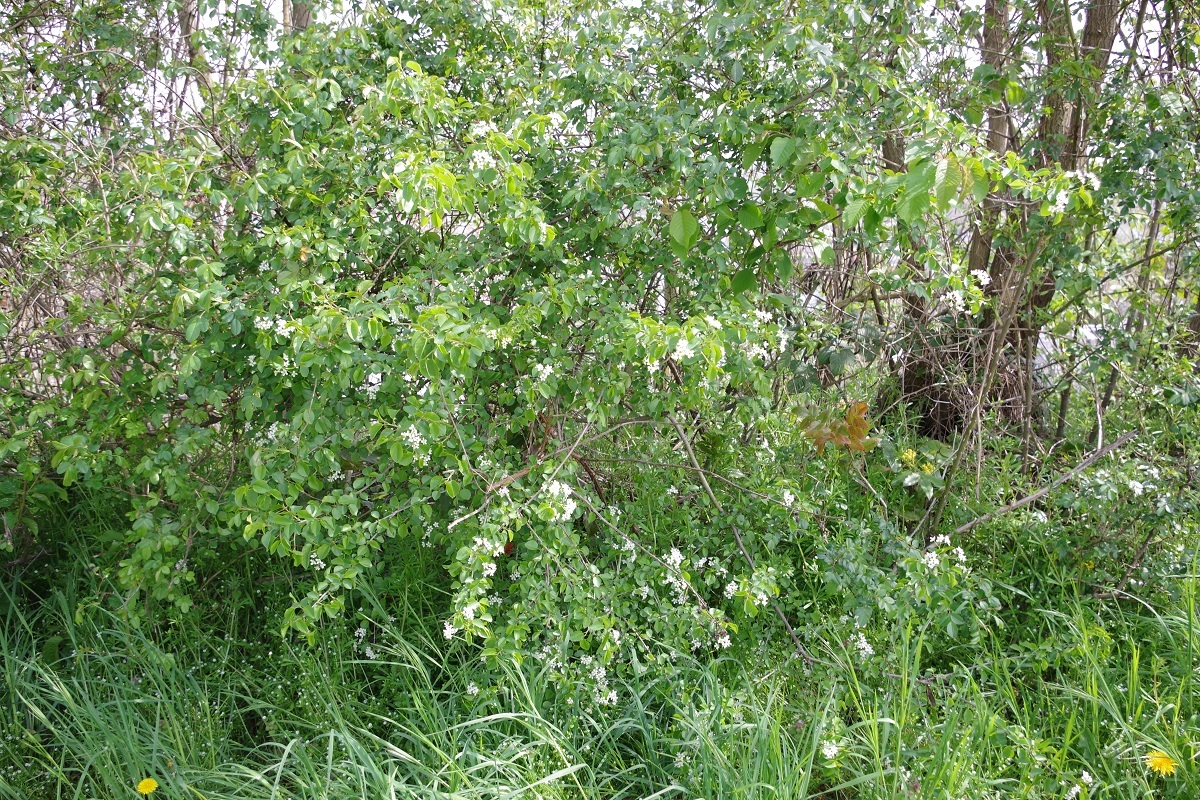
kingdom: Plantae
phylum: Tracheophyta
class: Magnoliopsida
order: Rosales
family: Rosaceae
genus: Prunus
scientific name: Prunus mahaleb
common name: Mahaleb cherry
